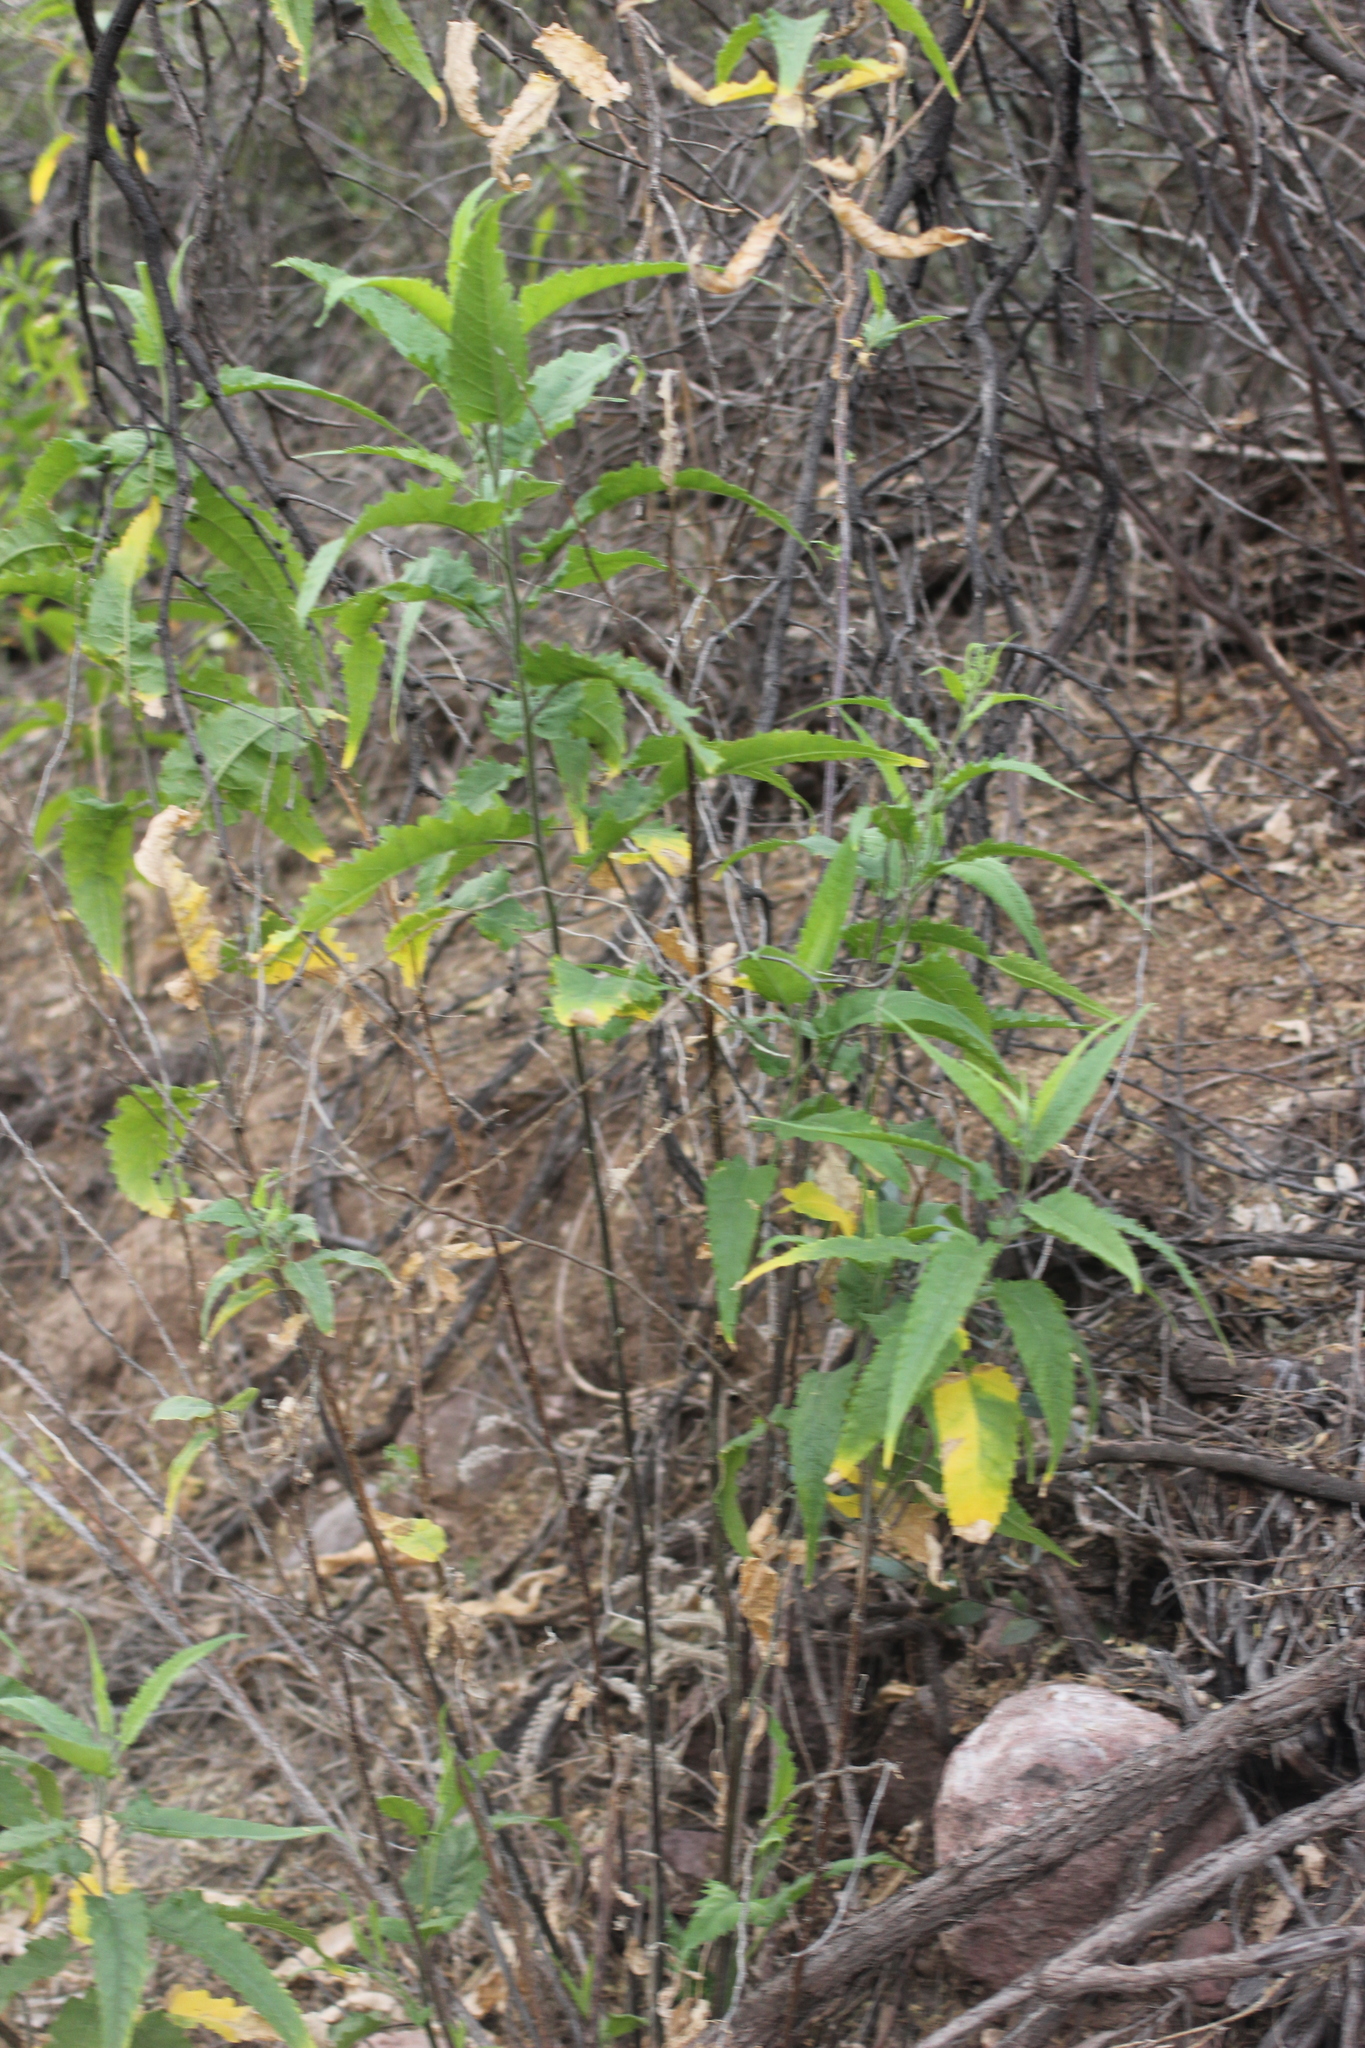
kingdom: Plantae
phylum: Tracheophyta
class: Magnoliopsida
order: Asterales
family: Asteraceae
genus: Ambrosia
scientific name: Ambrosia ambrosioides
